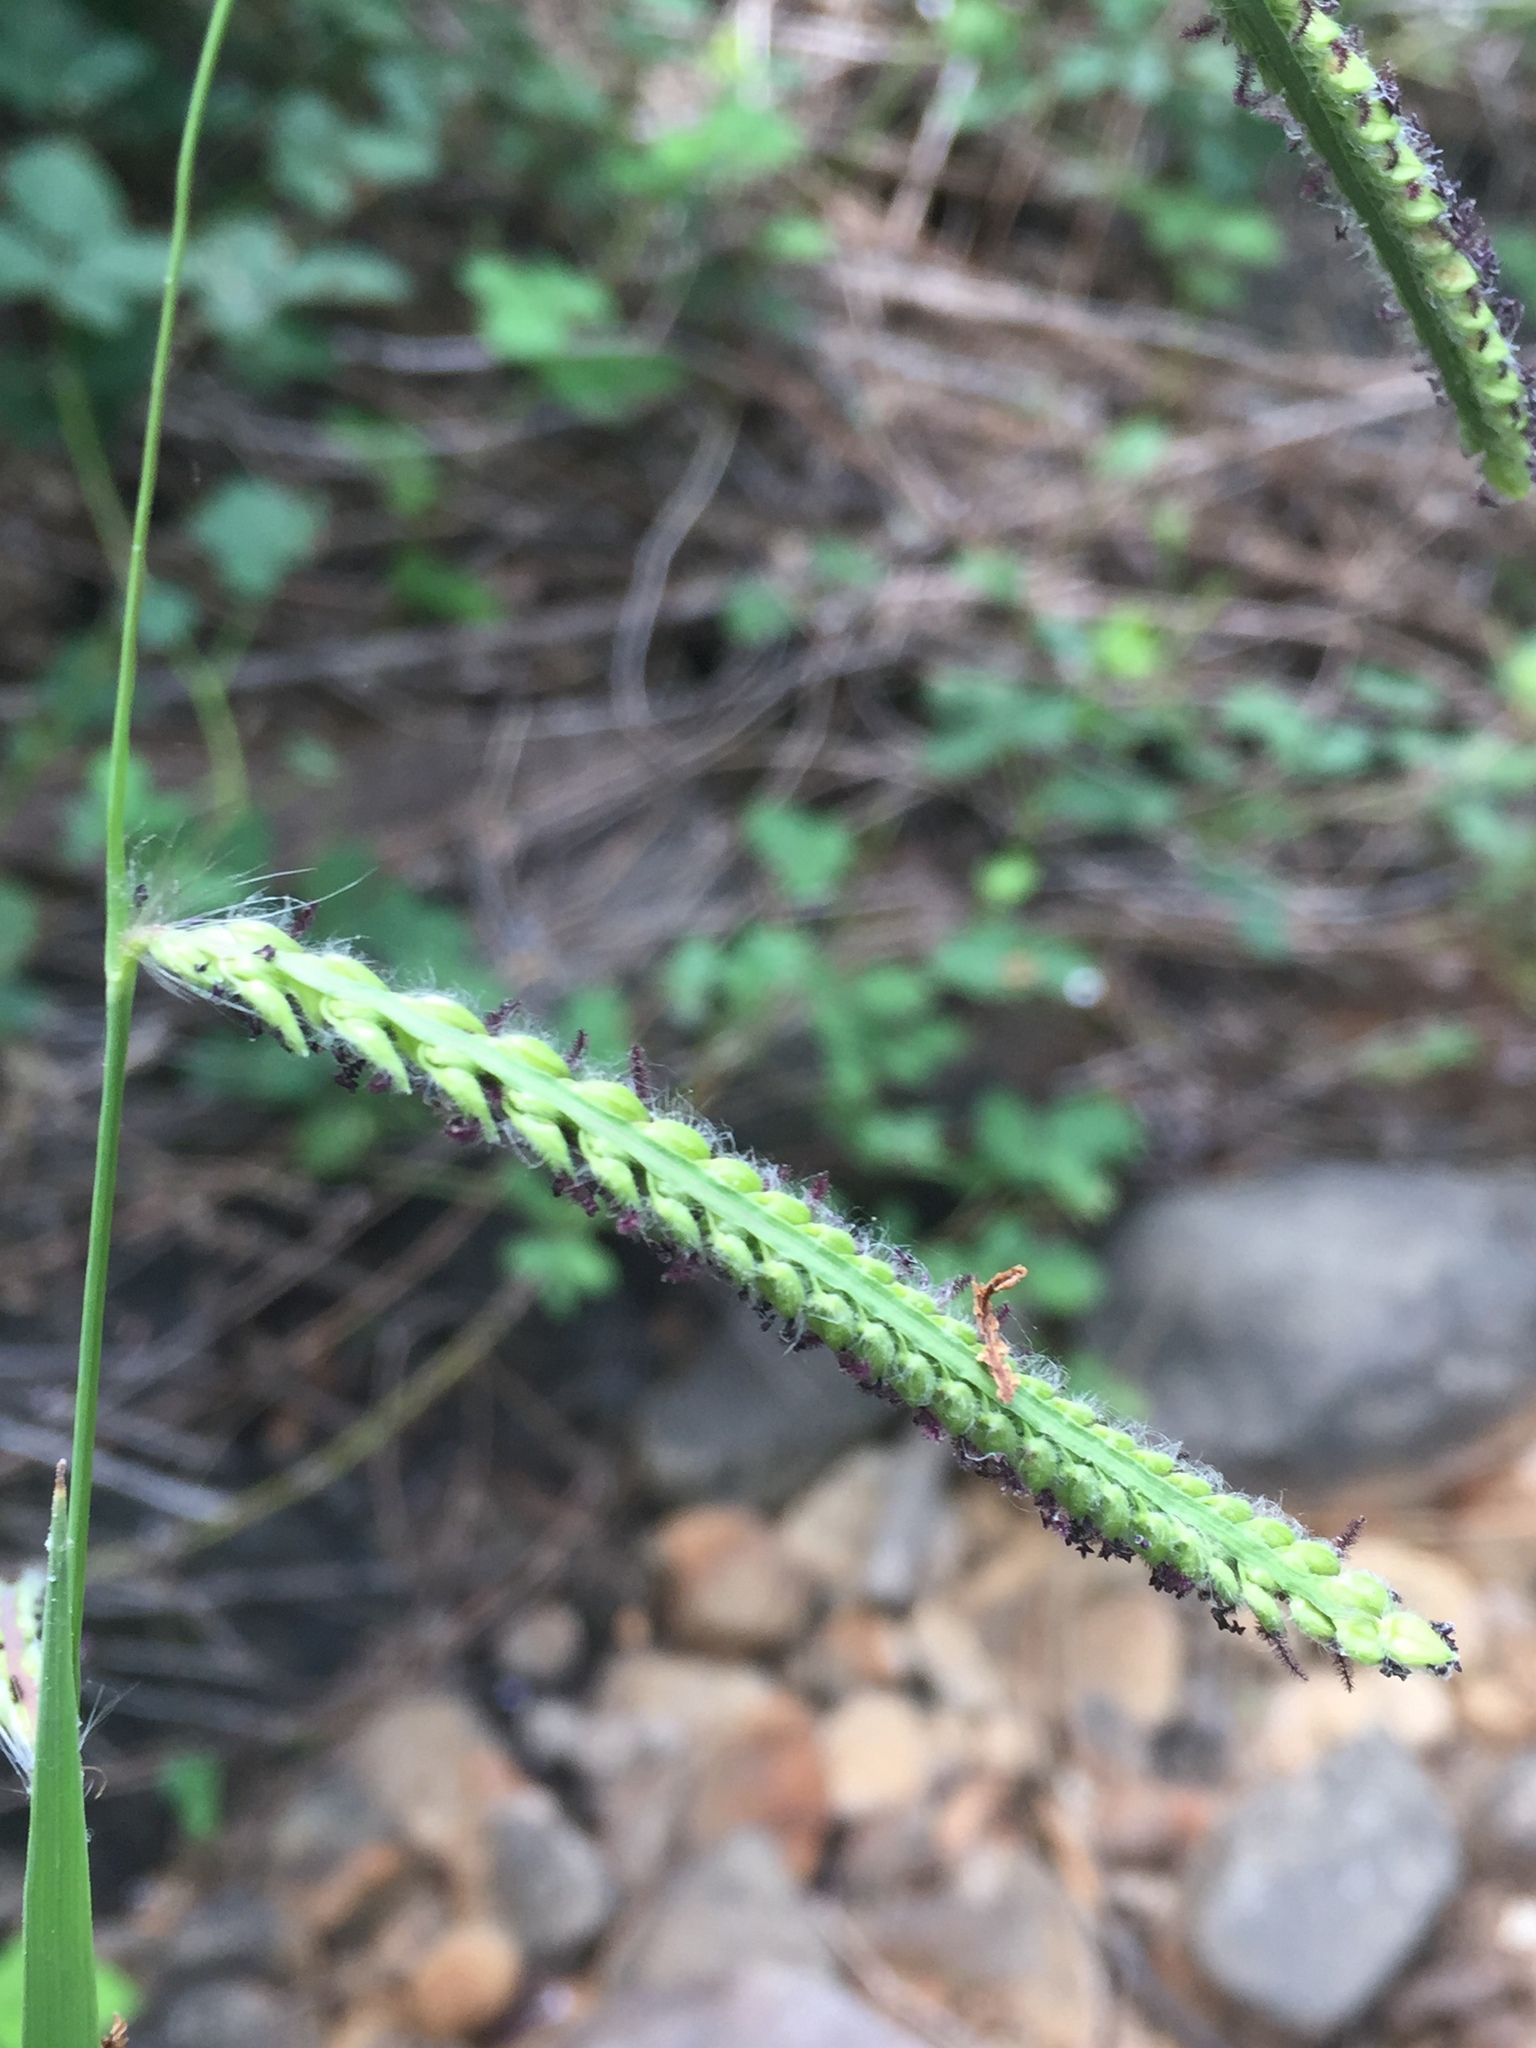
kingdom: Plantae
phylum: Tracheophyta
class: Liliopsida
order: Poales
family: Poaceae
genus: Paspalum
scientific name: Paspalum dilatatum
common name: Dallisgrass
